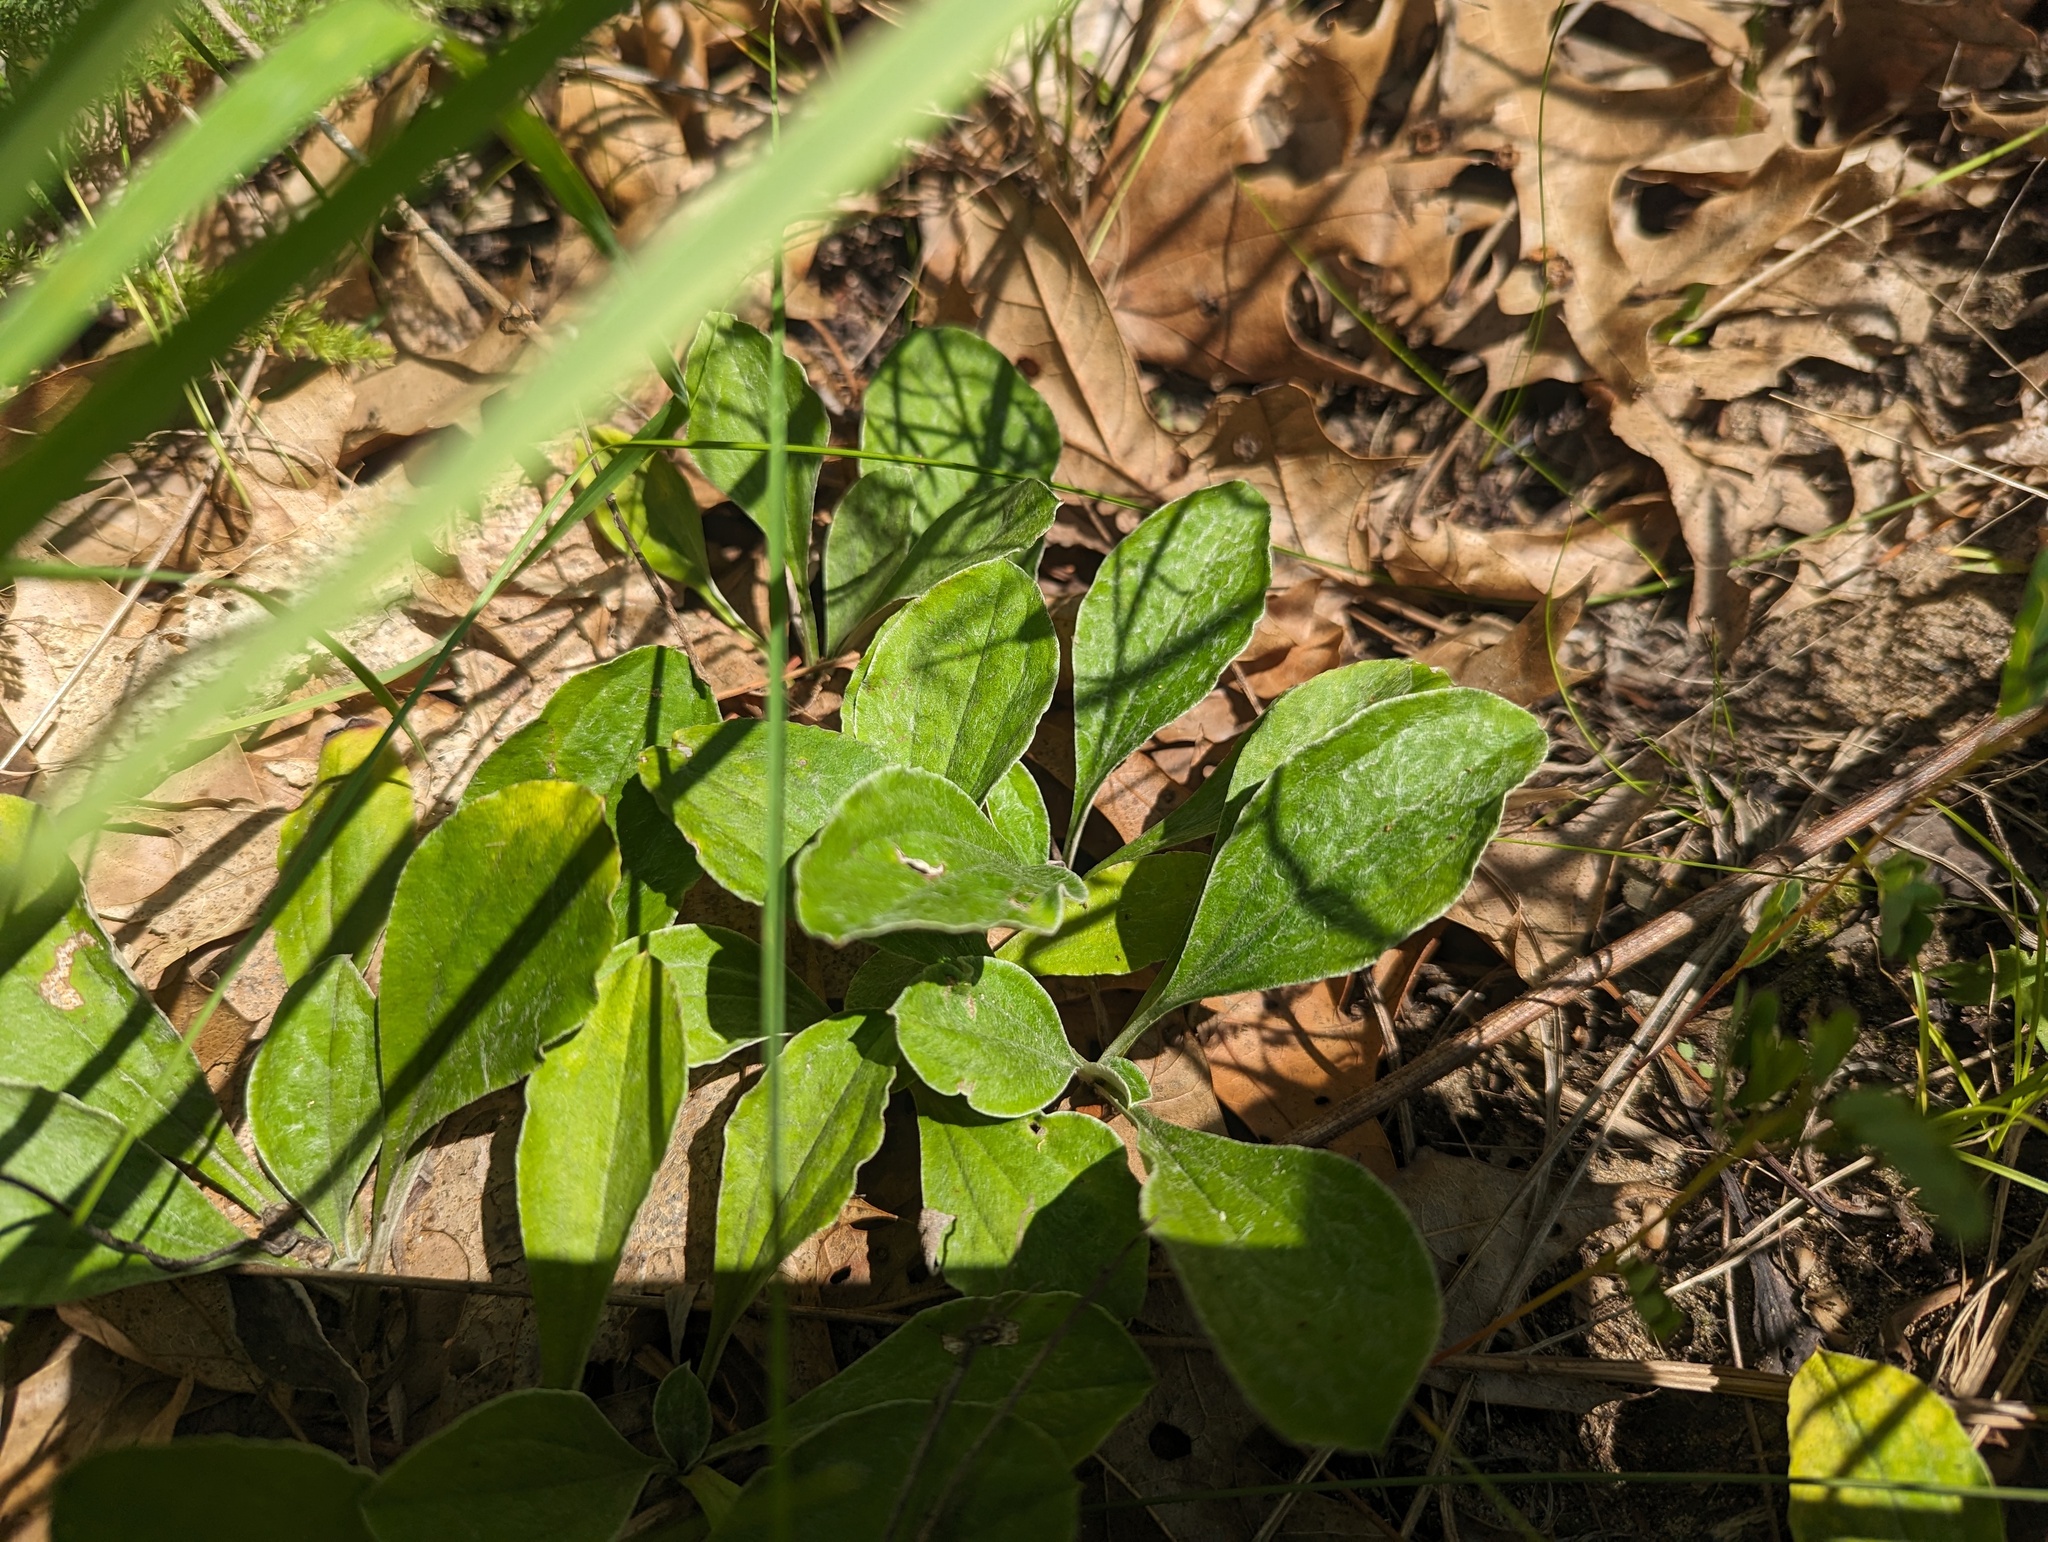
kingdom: Plantae
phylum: Tracheophyta
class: Magnoliopsida
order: Asterales
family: Asteraceae
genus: Antennaria
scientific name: Antennaria parlinii
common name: Parlin's pussytoes
